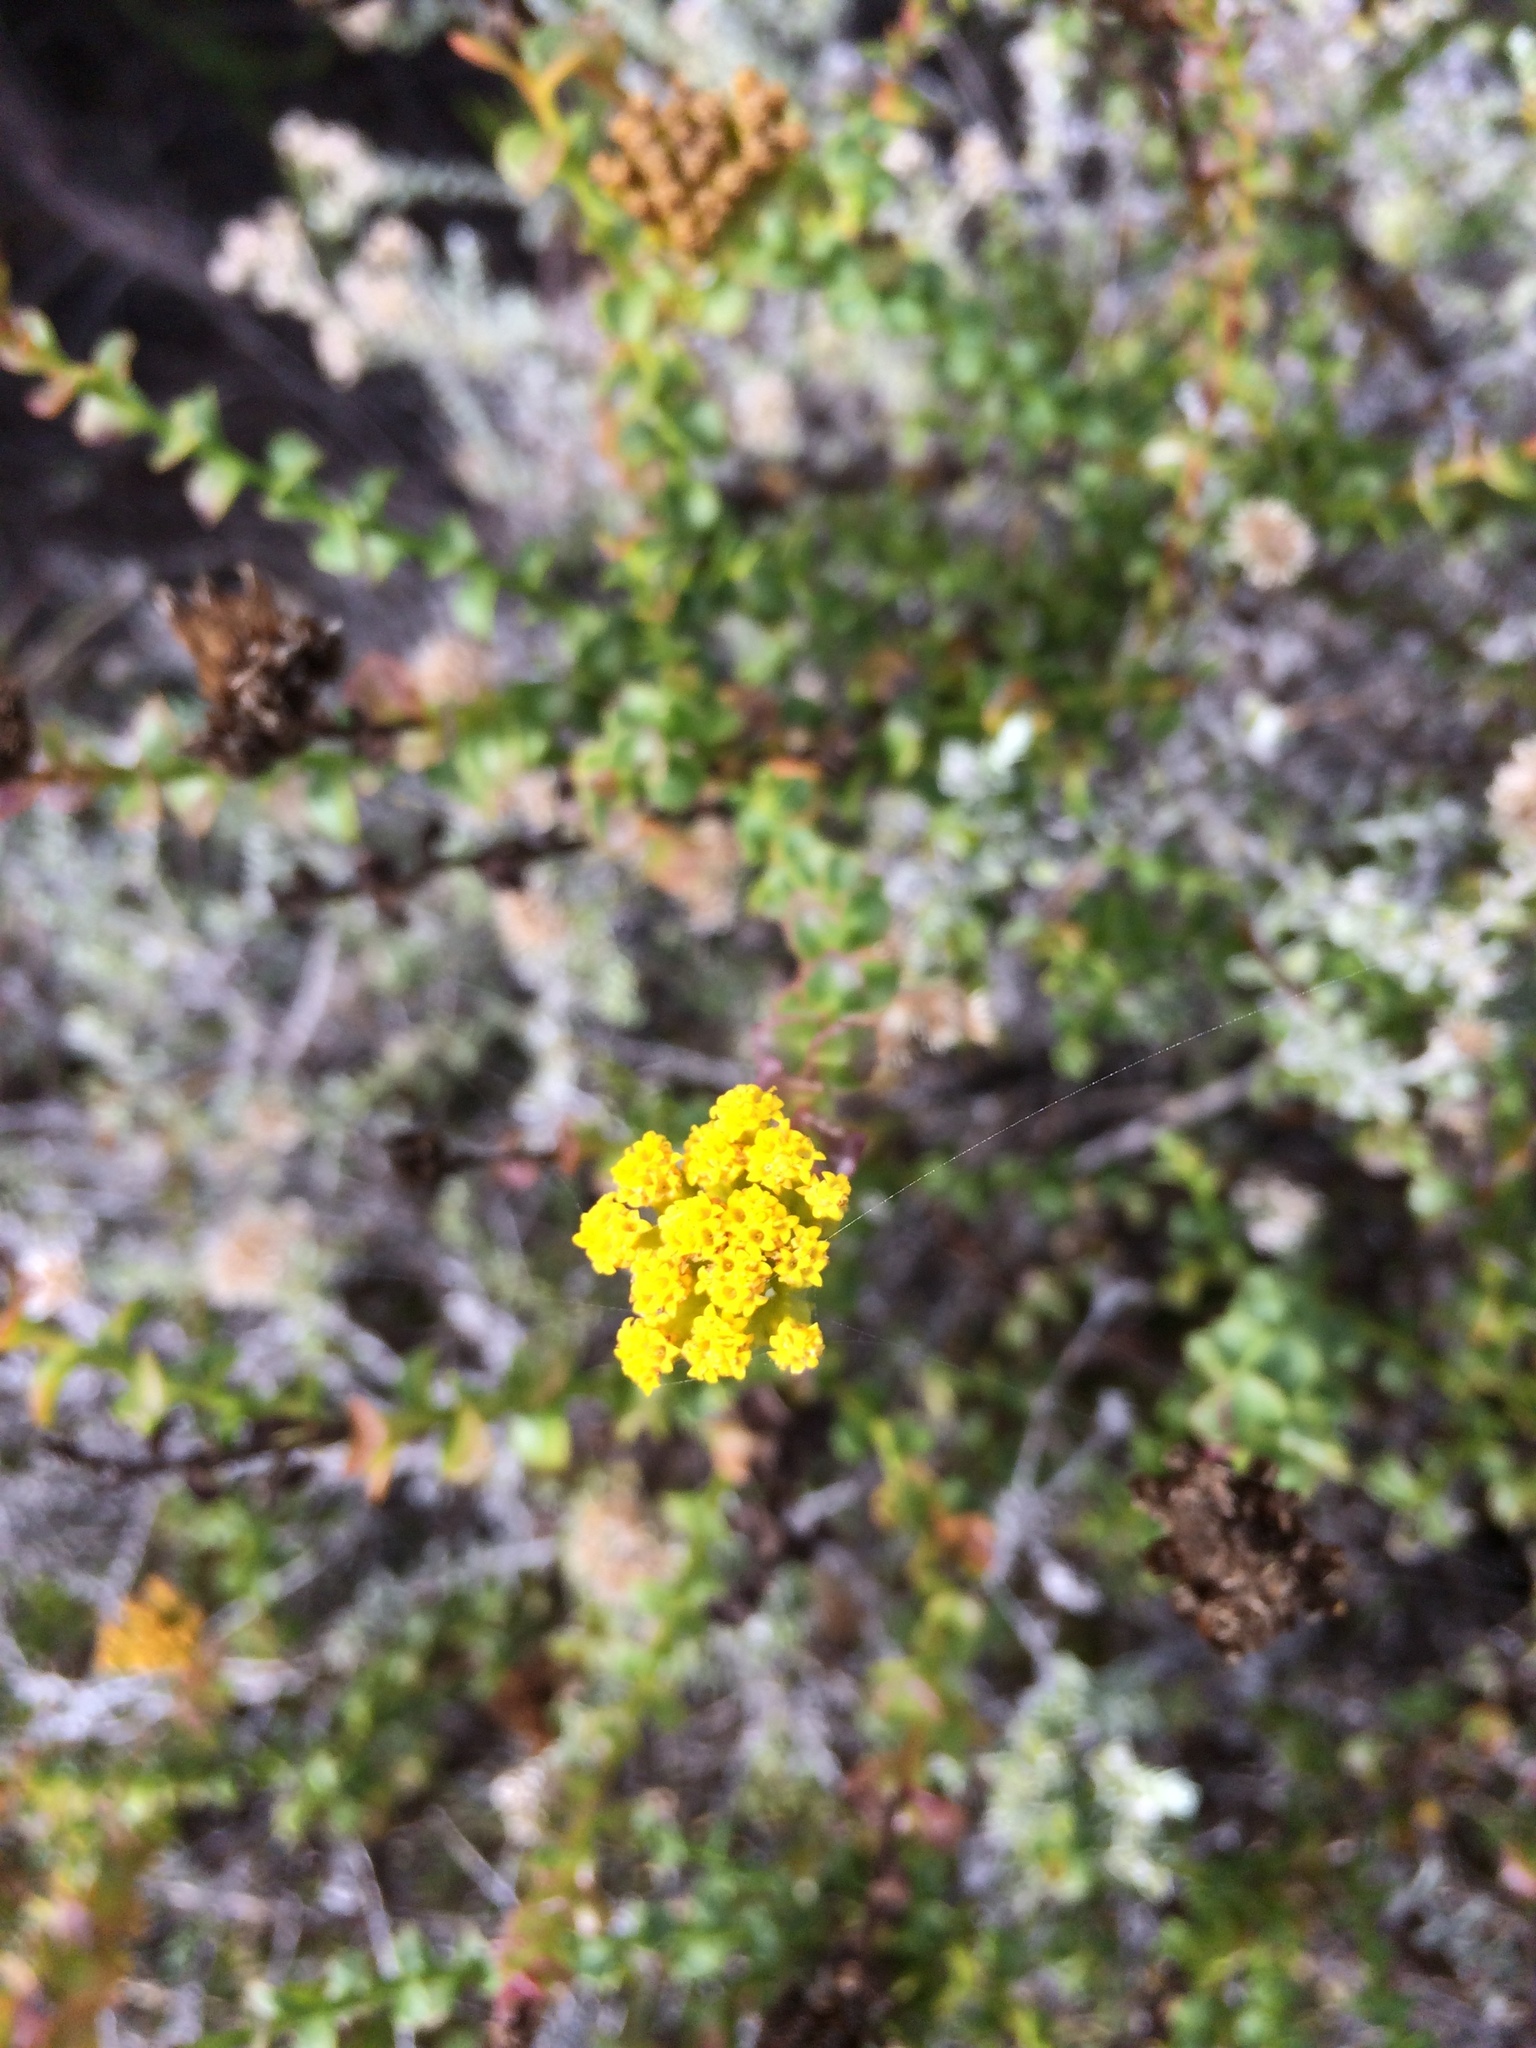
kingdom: Plantae
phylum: Tracheophyta
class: Magnoliopsida
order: Asterales
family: Asteraceae
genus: Athanasia
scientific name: Athanasia dentata
